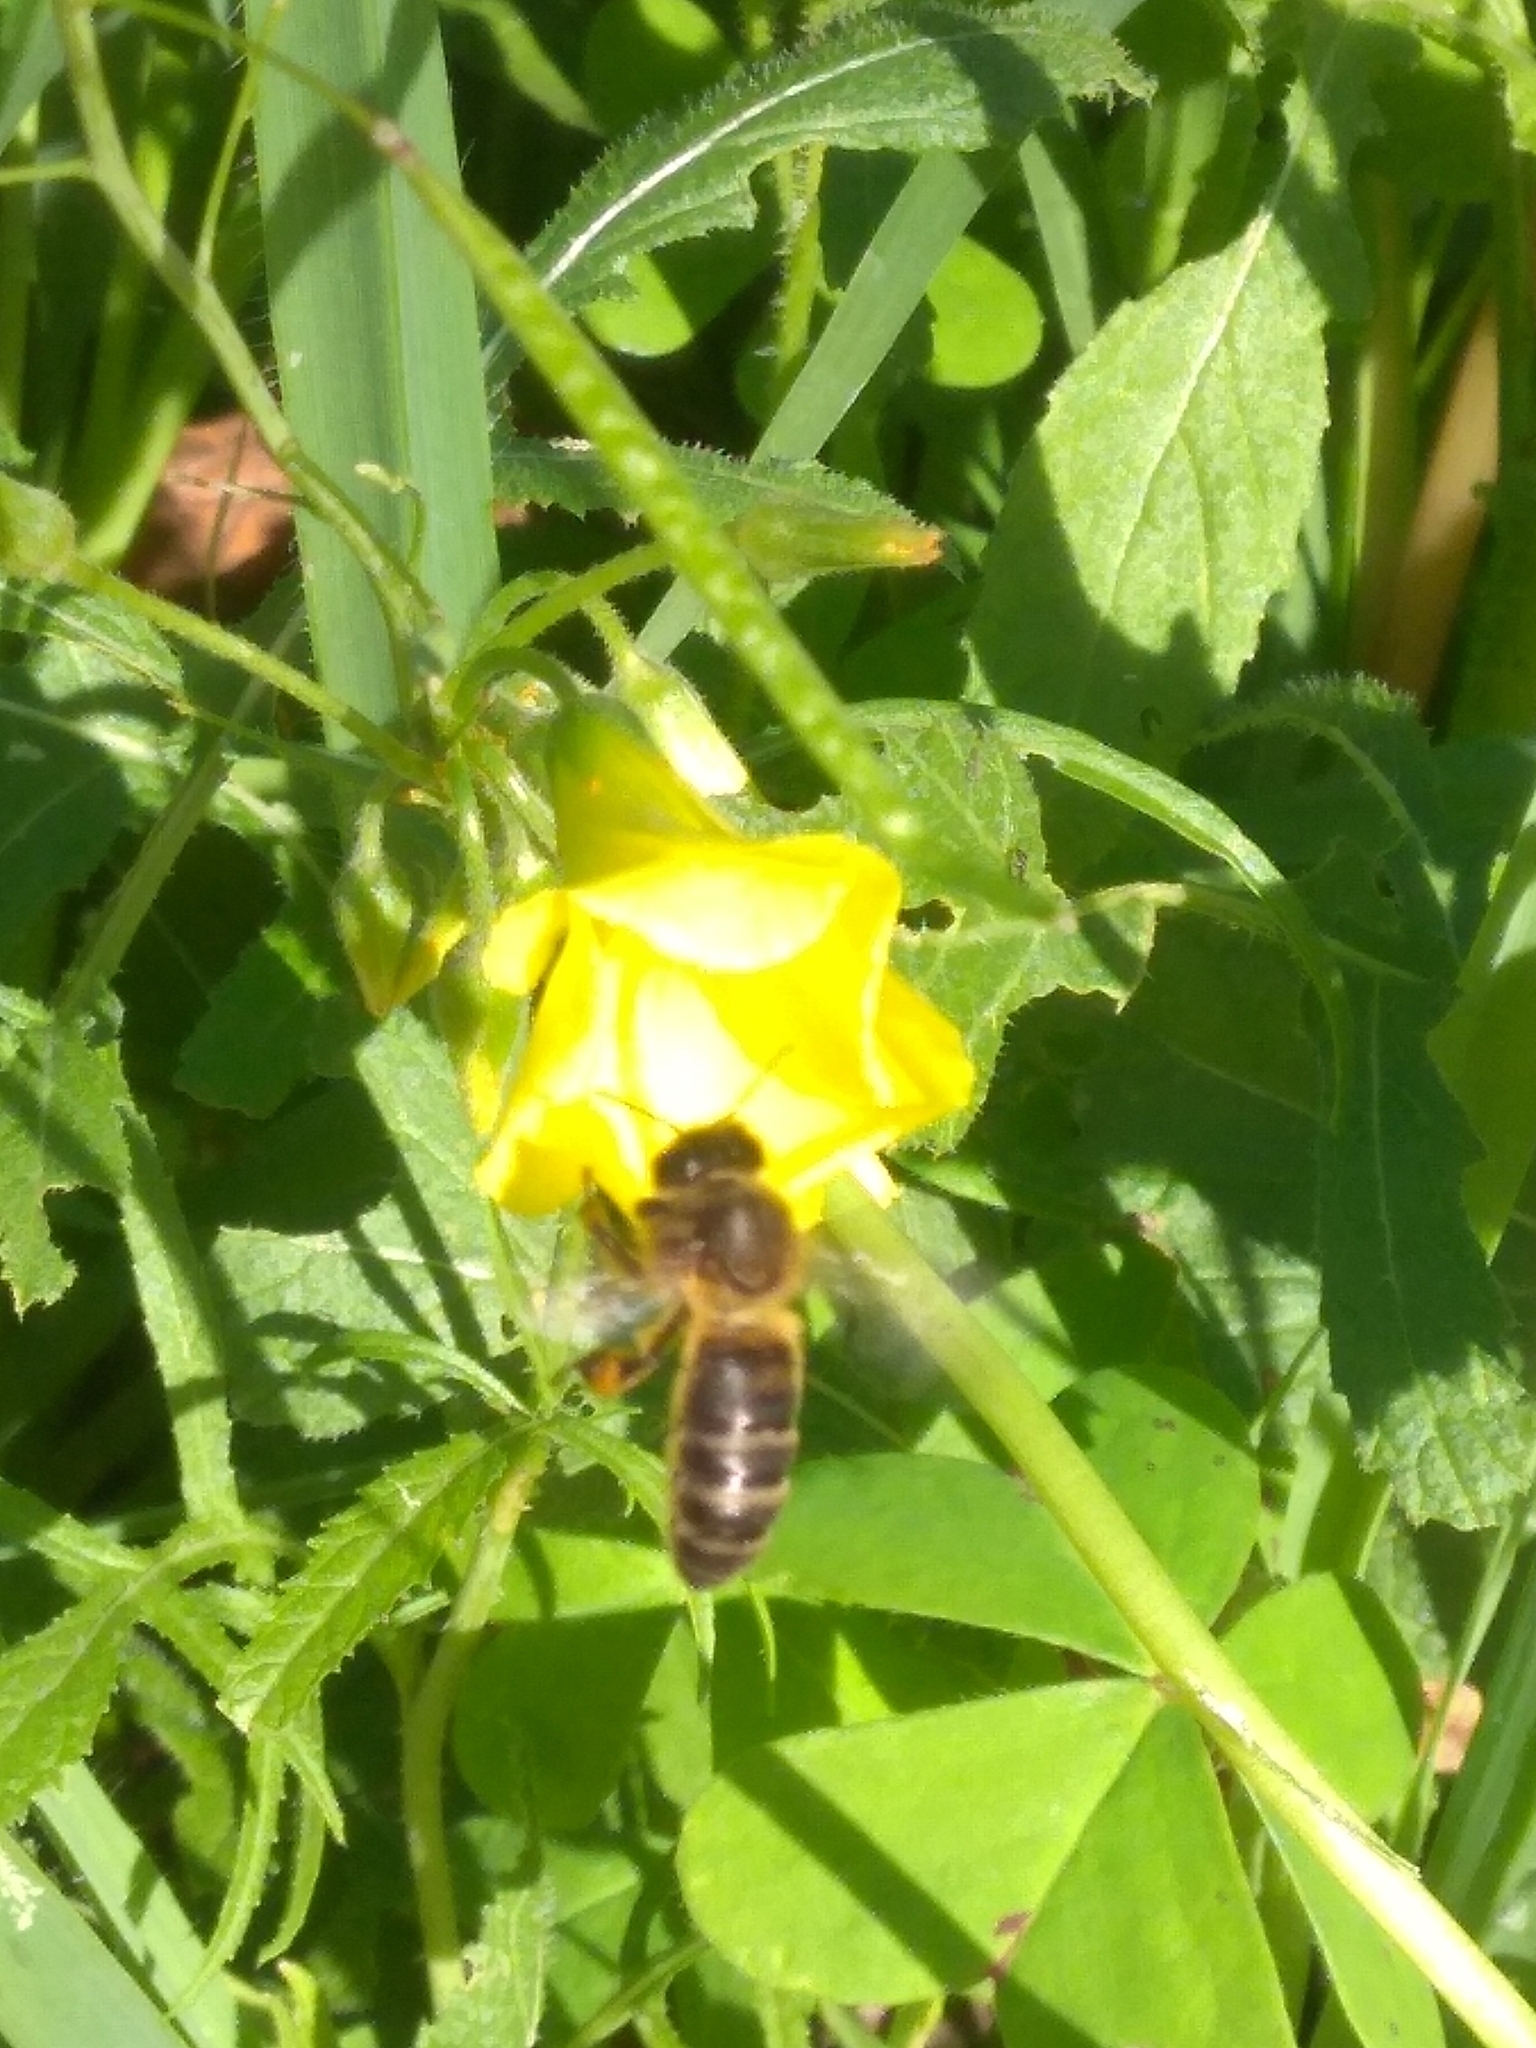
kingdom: Animalia
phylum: Arthropoda
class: Insecta
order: Hymenoptera
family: Apidae
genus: Apis
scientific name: Apis mellifera
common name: Honey bee
